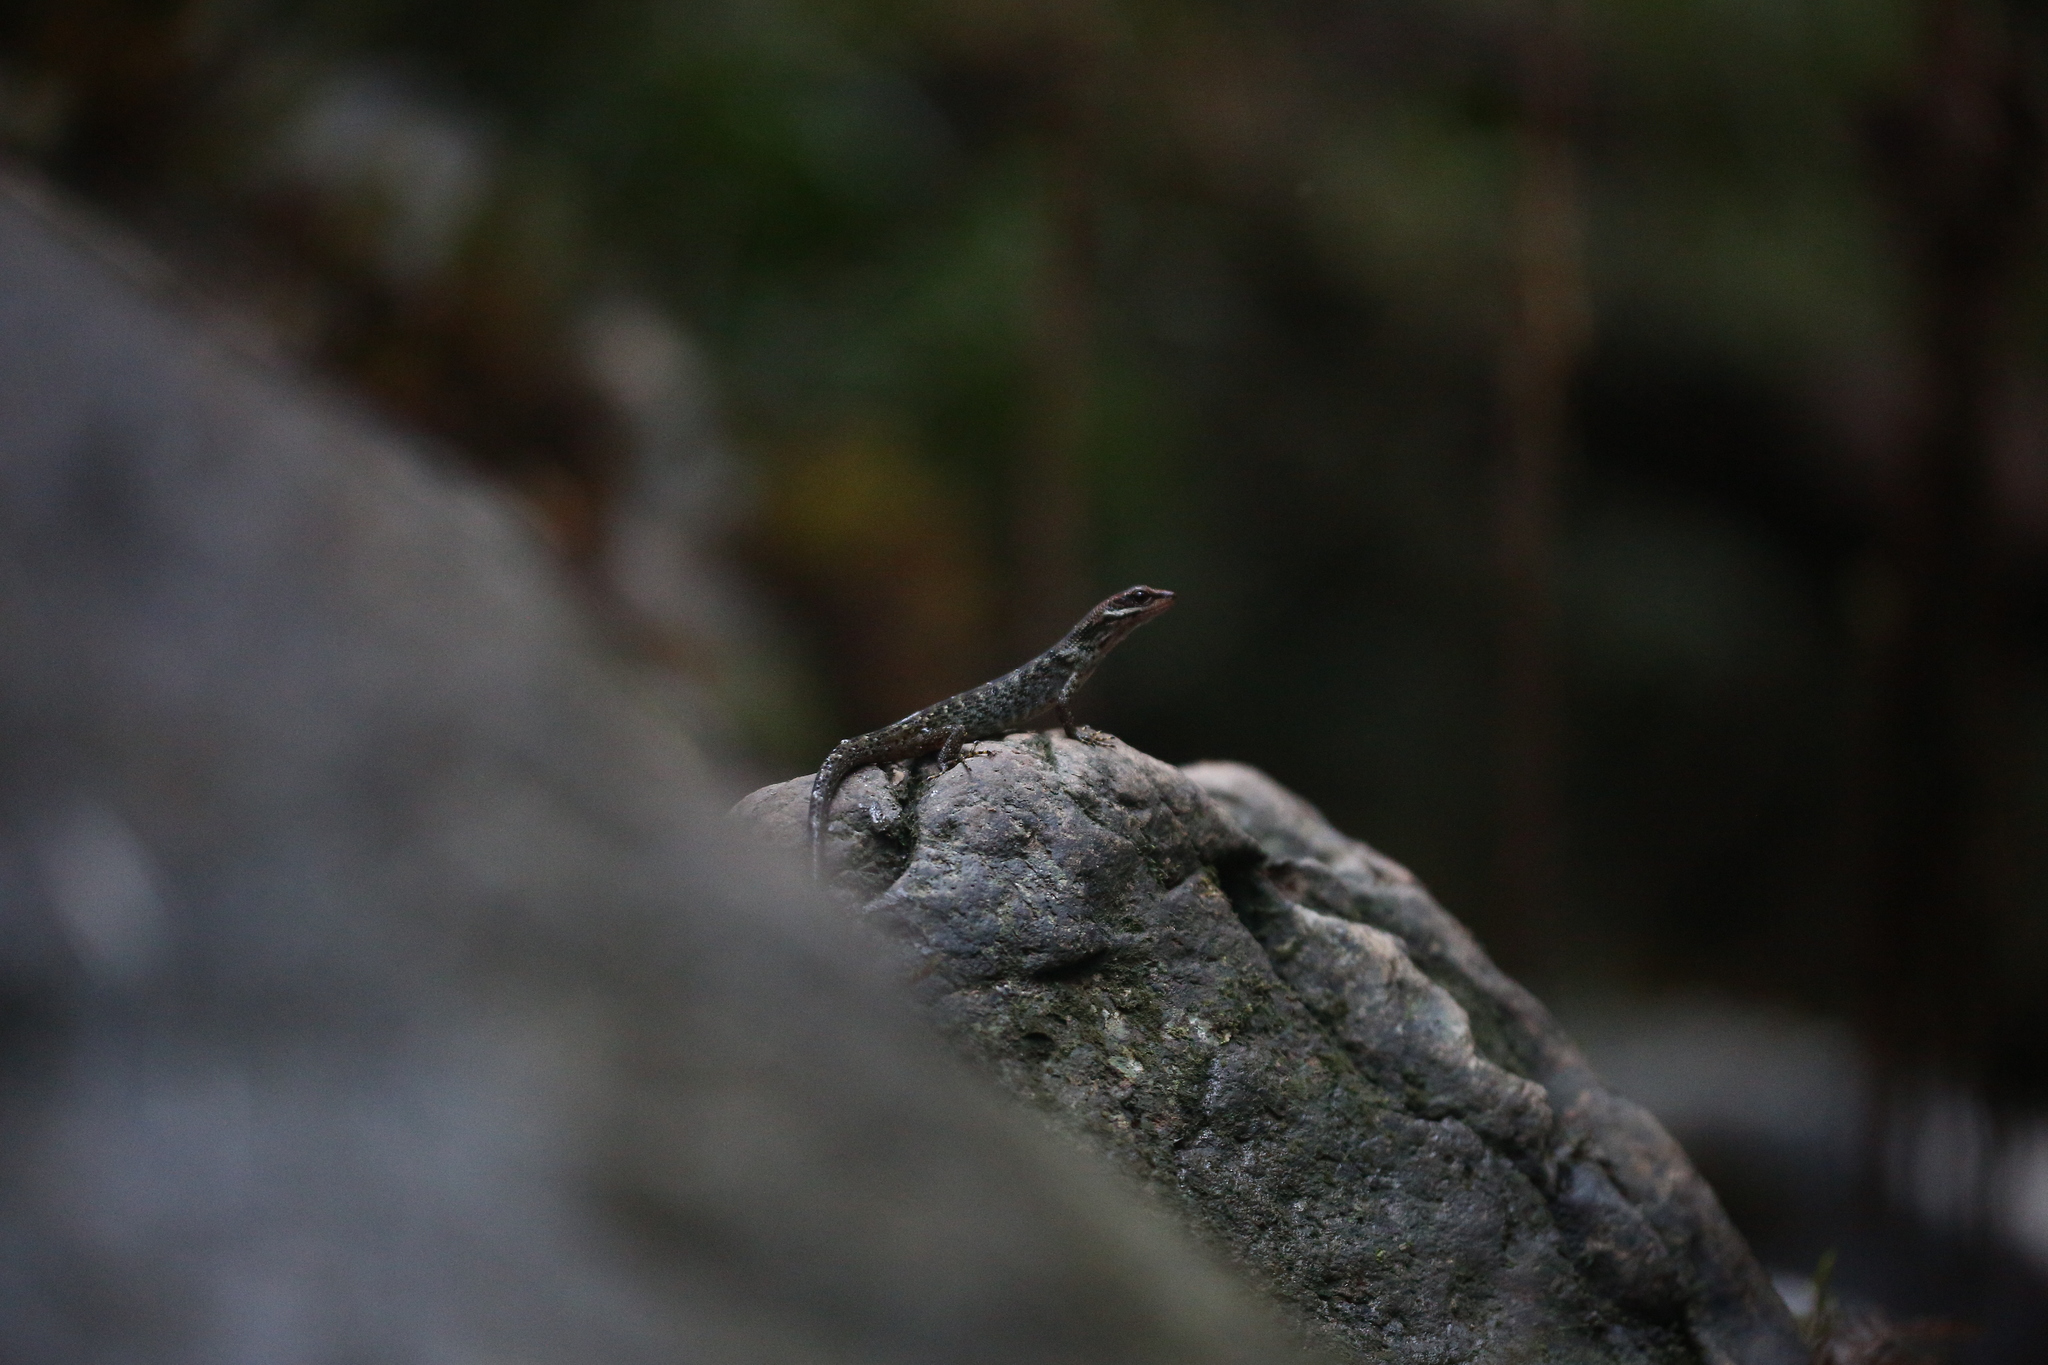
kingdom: Animalia
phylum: Chordata
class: Squamata
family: Scincidae
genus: Lioscincus
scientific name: Lioscincus steindachneri
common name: White-lipped forest skink
